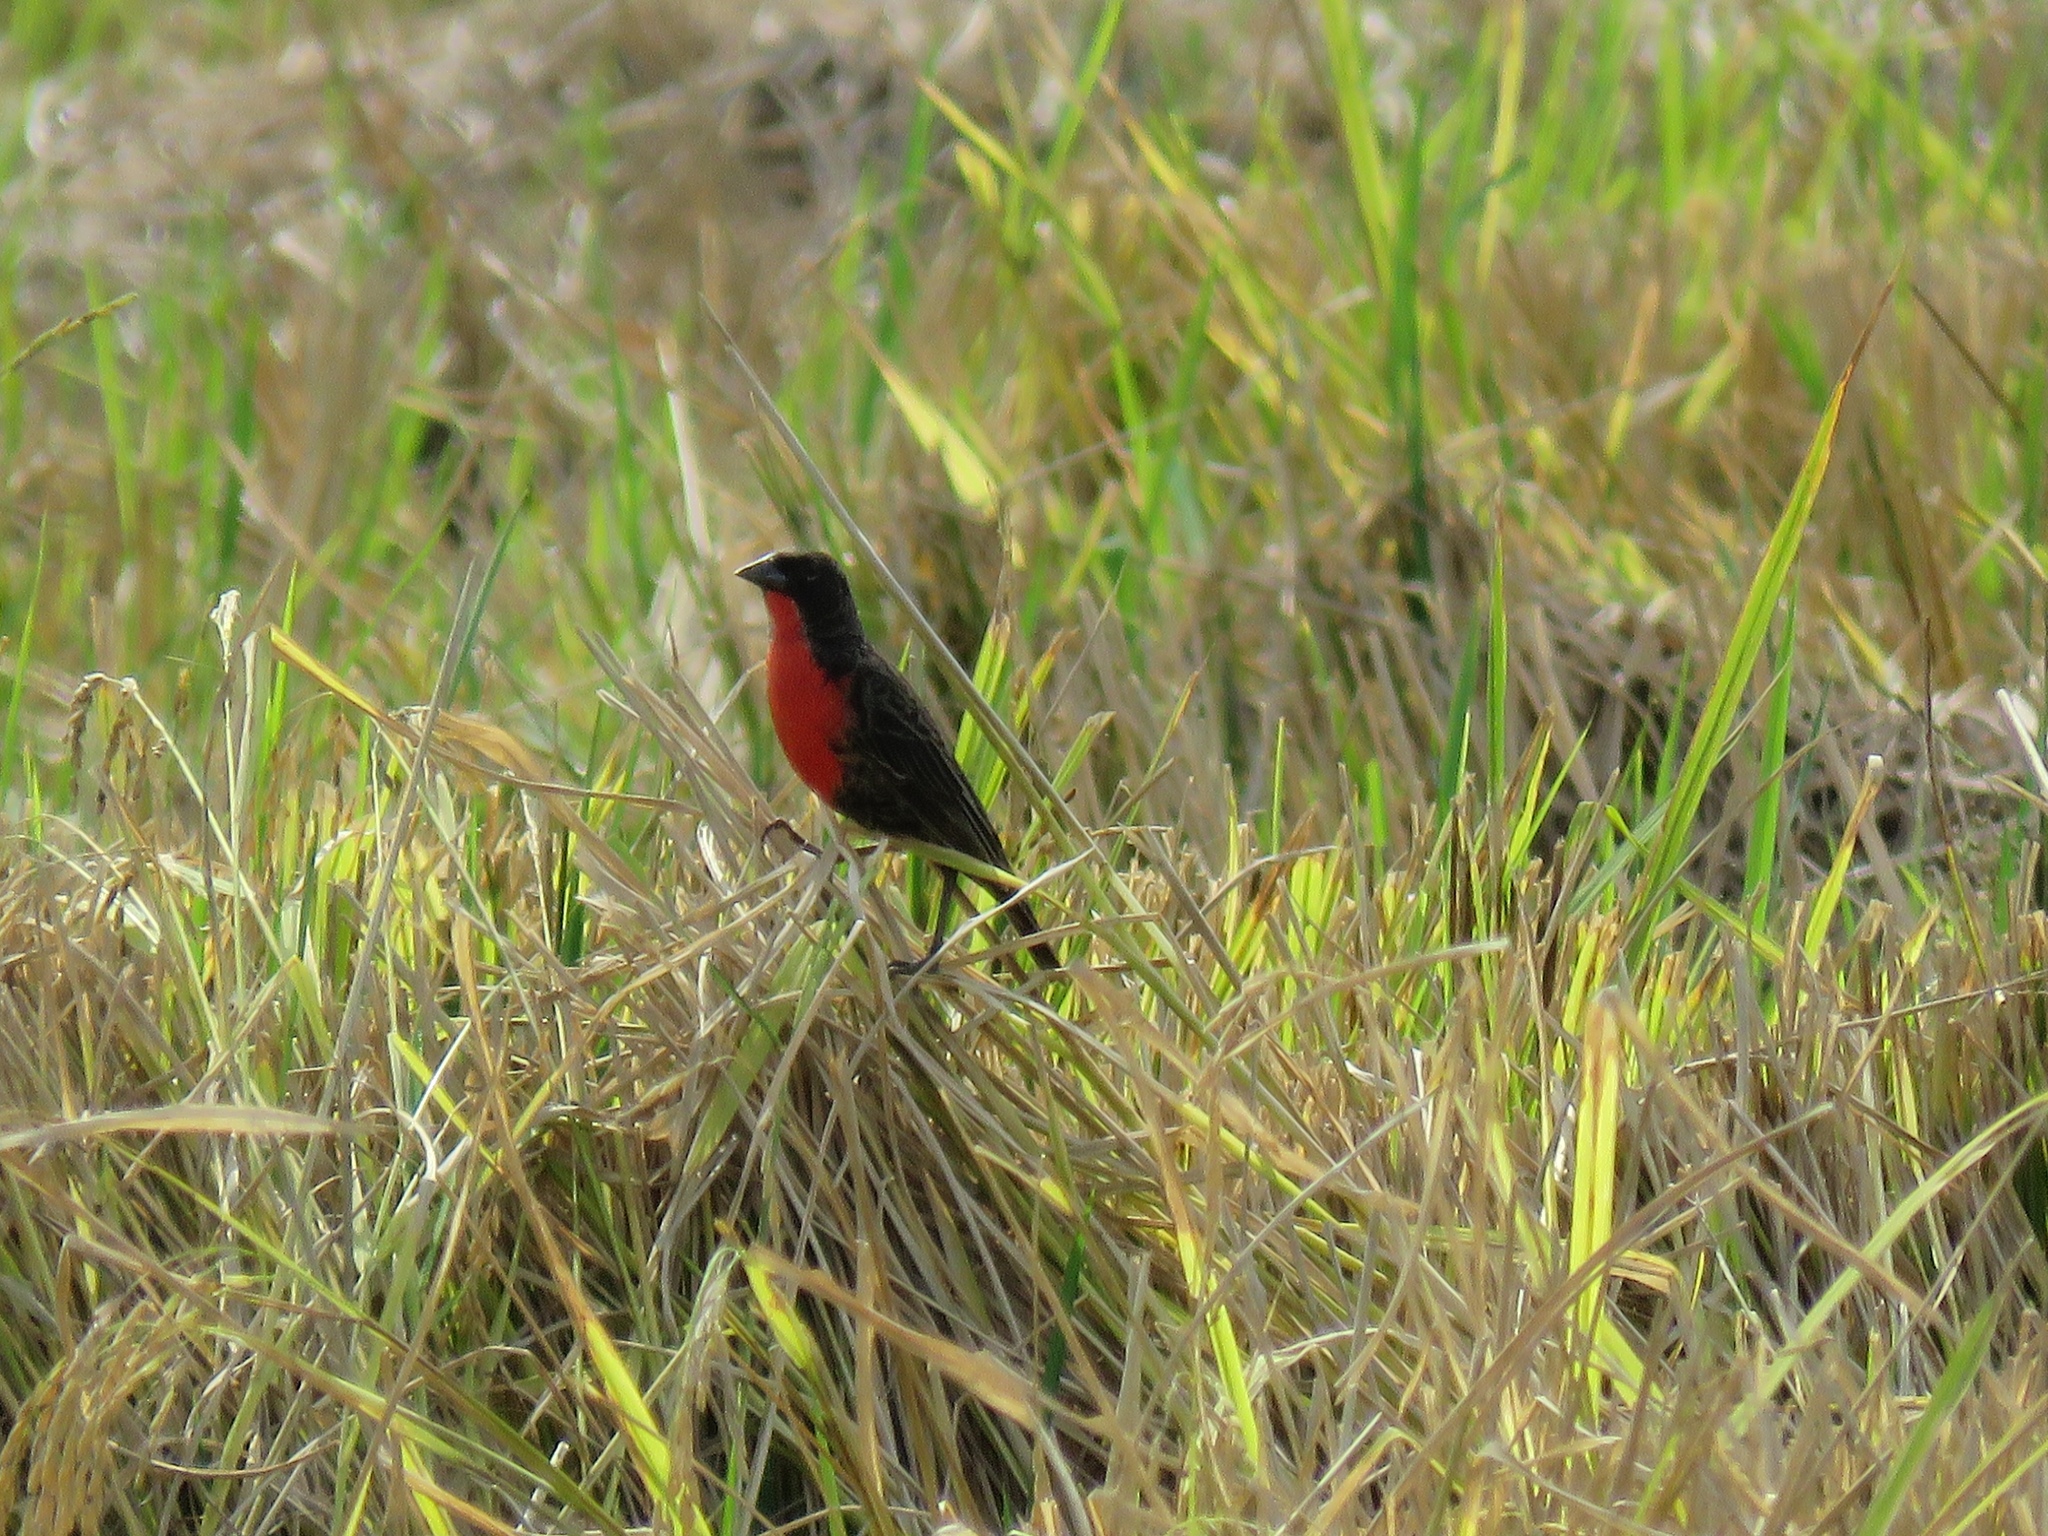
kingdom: Animalia
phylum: Chordata
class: Aves
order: Passeriformes
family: Icteridae
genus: Sturnella
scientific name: Sturnella militaris
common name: Red-breasted blackbird
